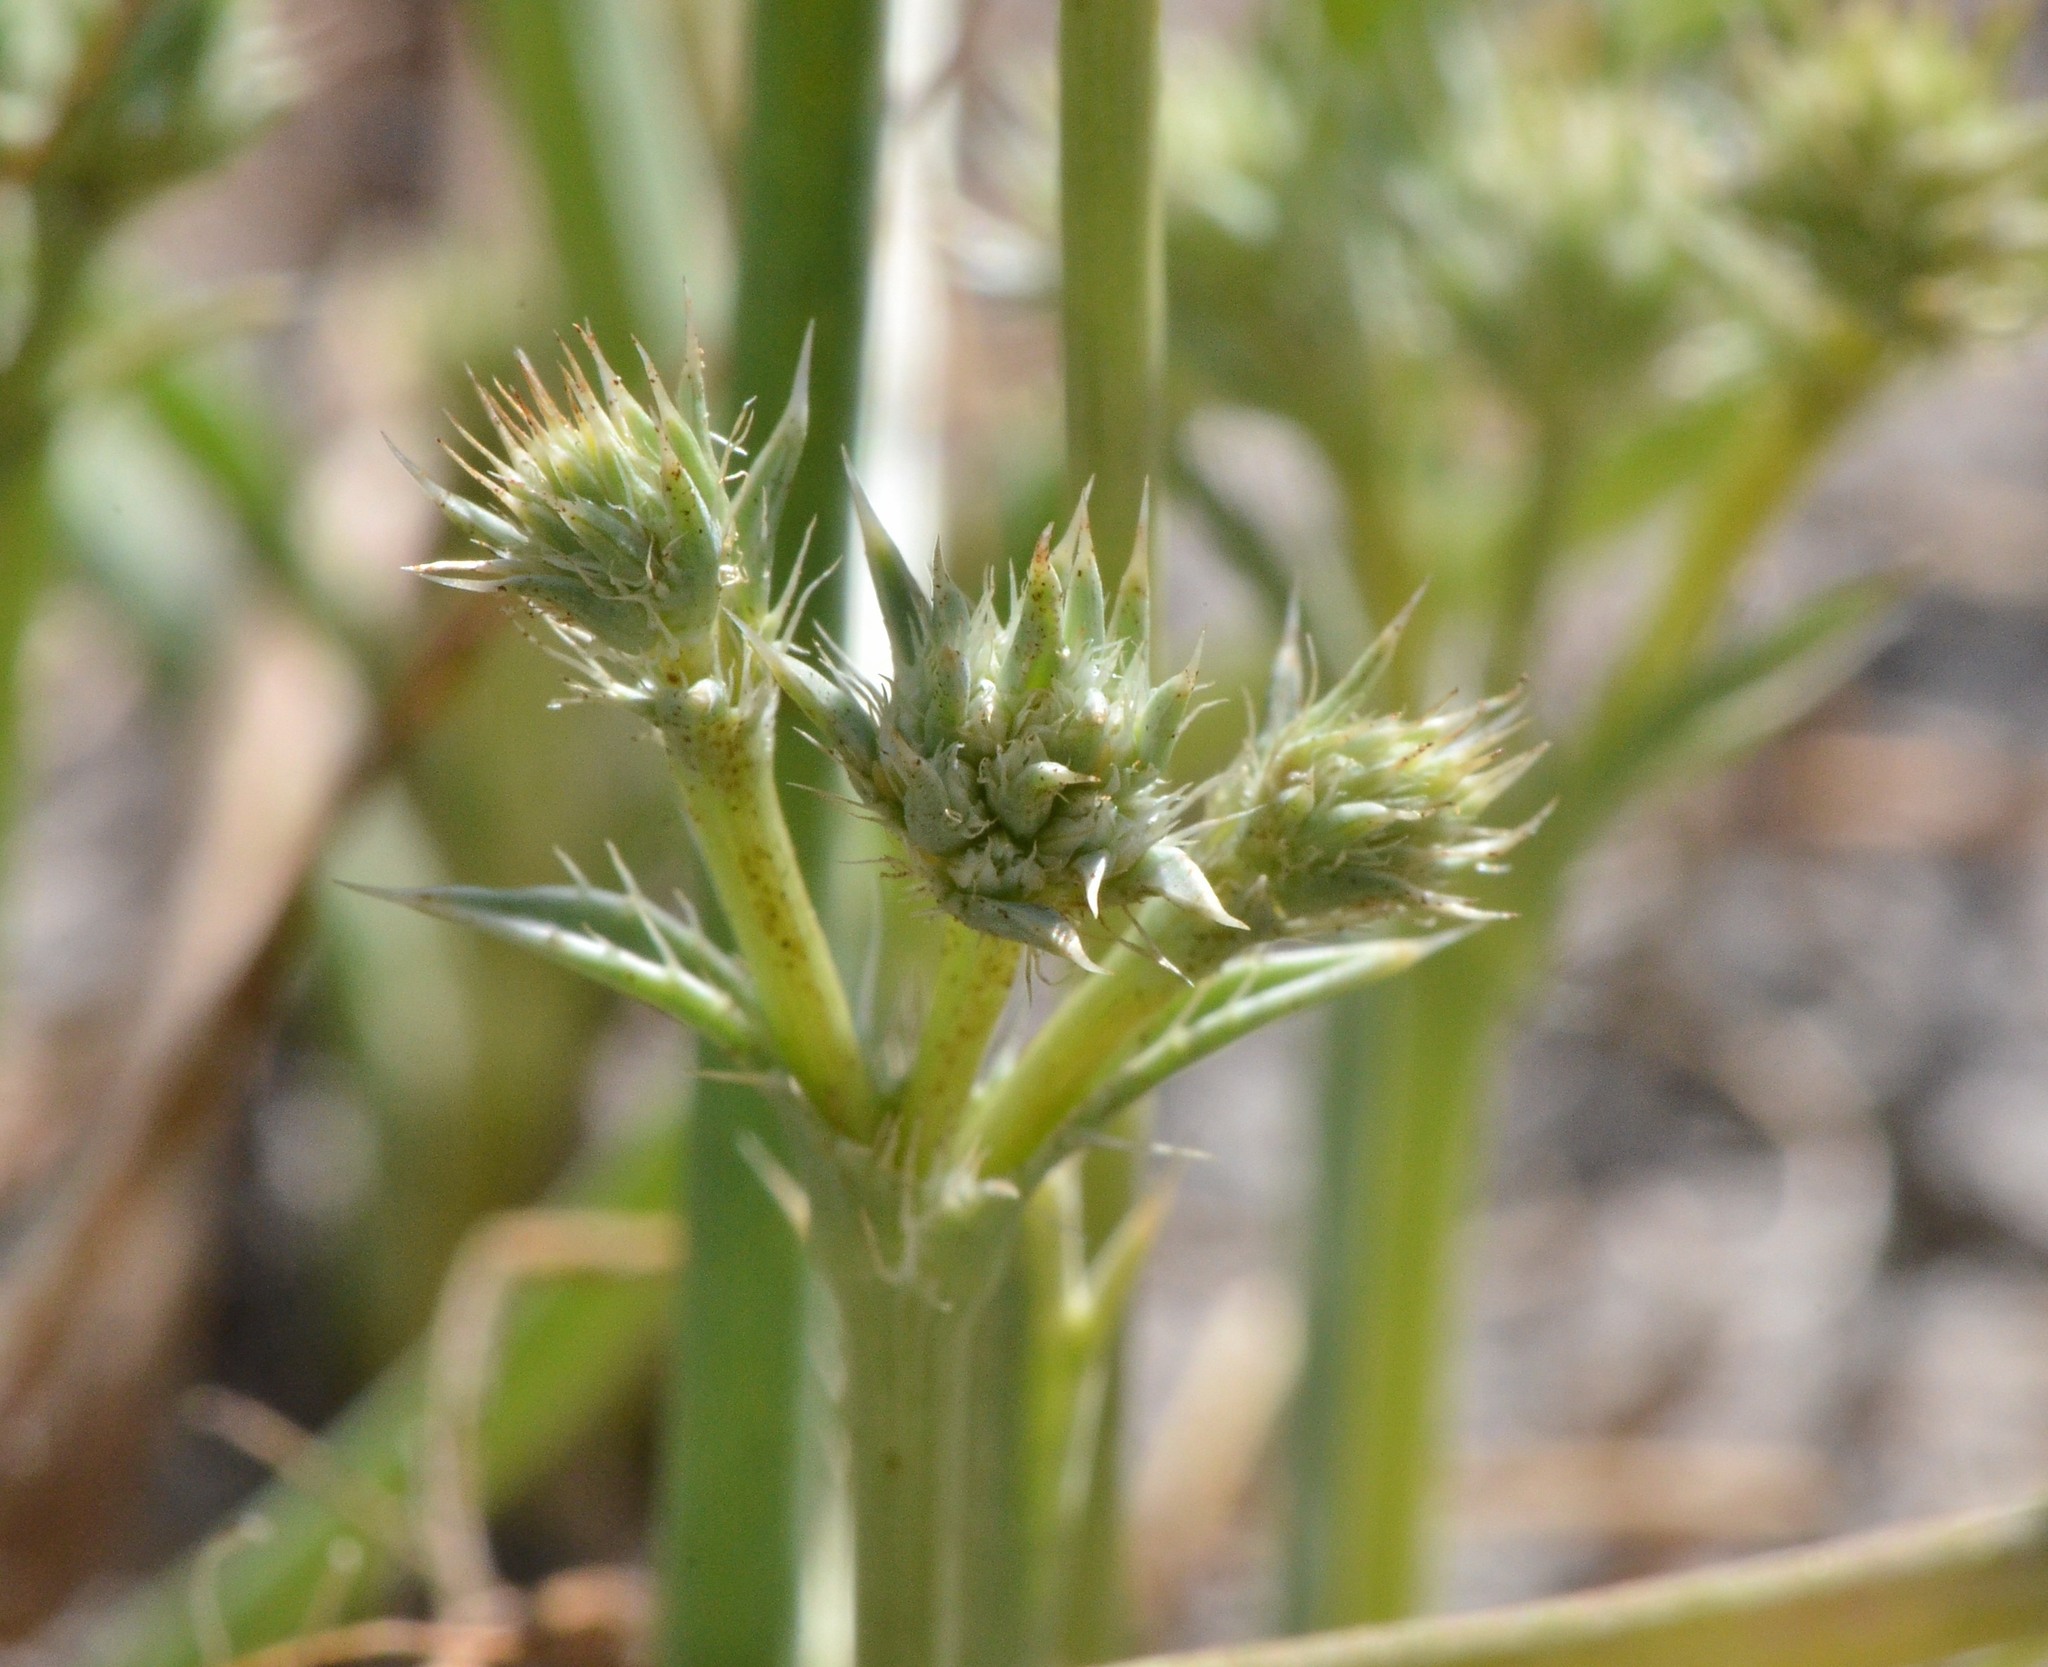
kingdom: Plantae
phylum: Tracheophyta
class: Magnoliopsida
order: Apiales
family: Apiaceae
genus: Eryngium
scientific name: Eryngium aristulatum
